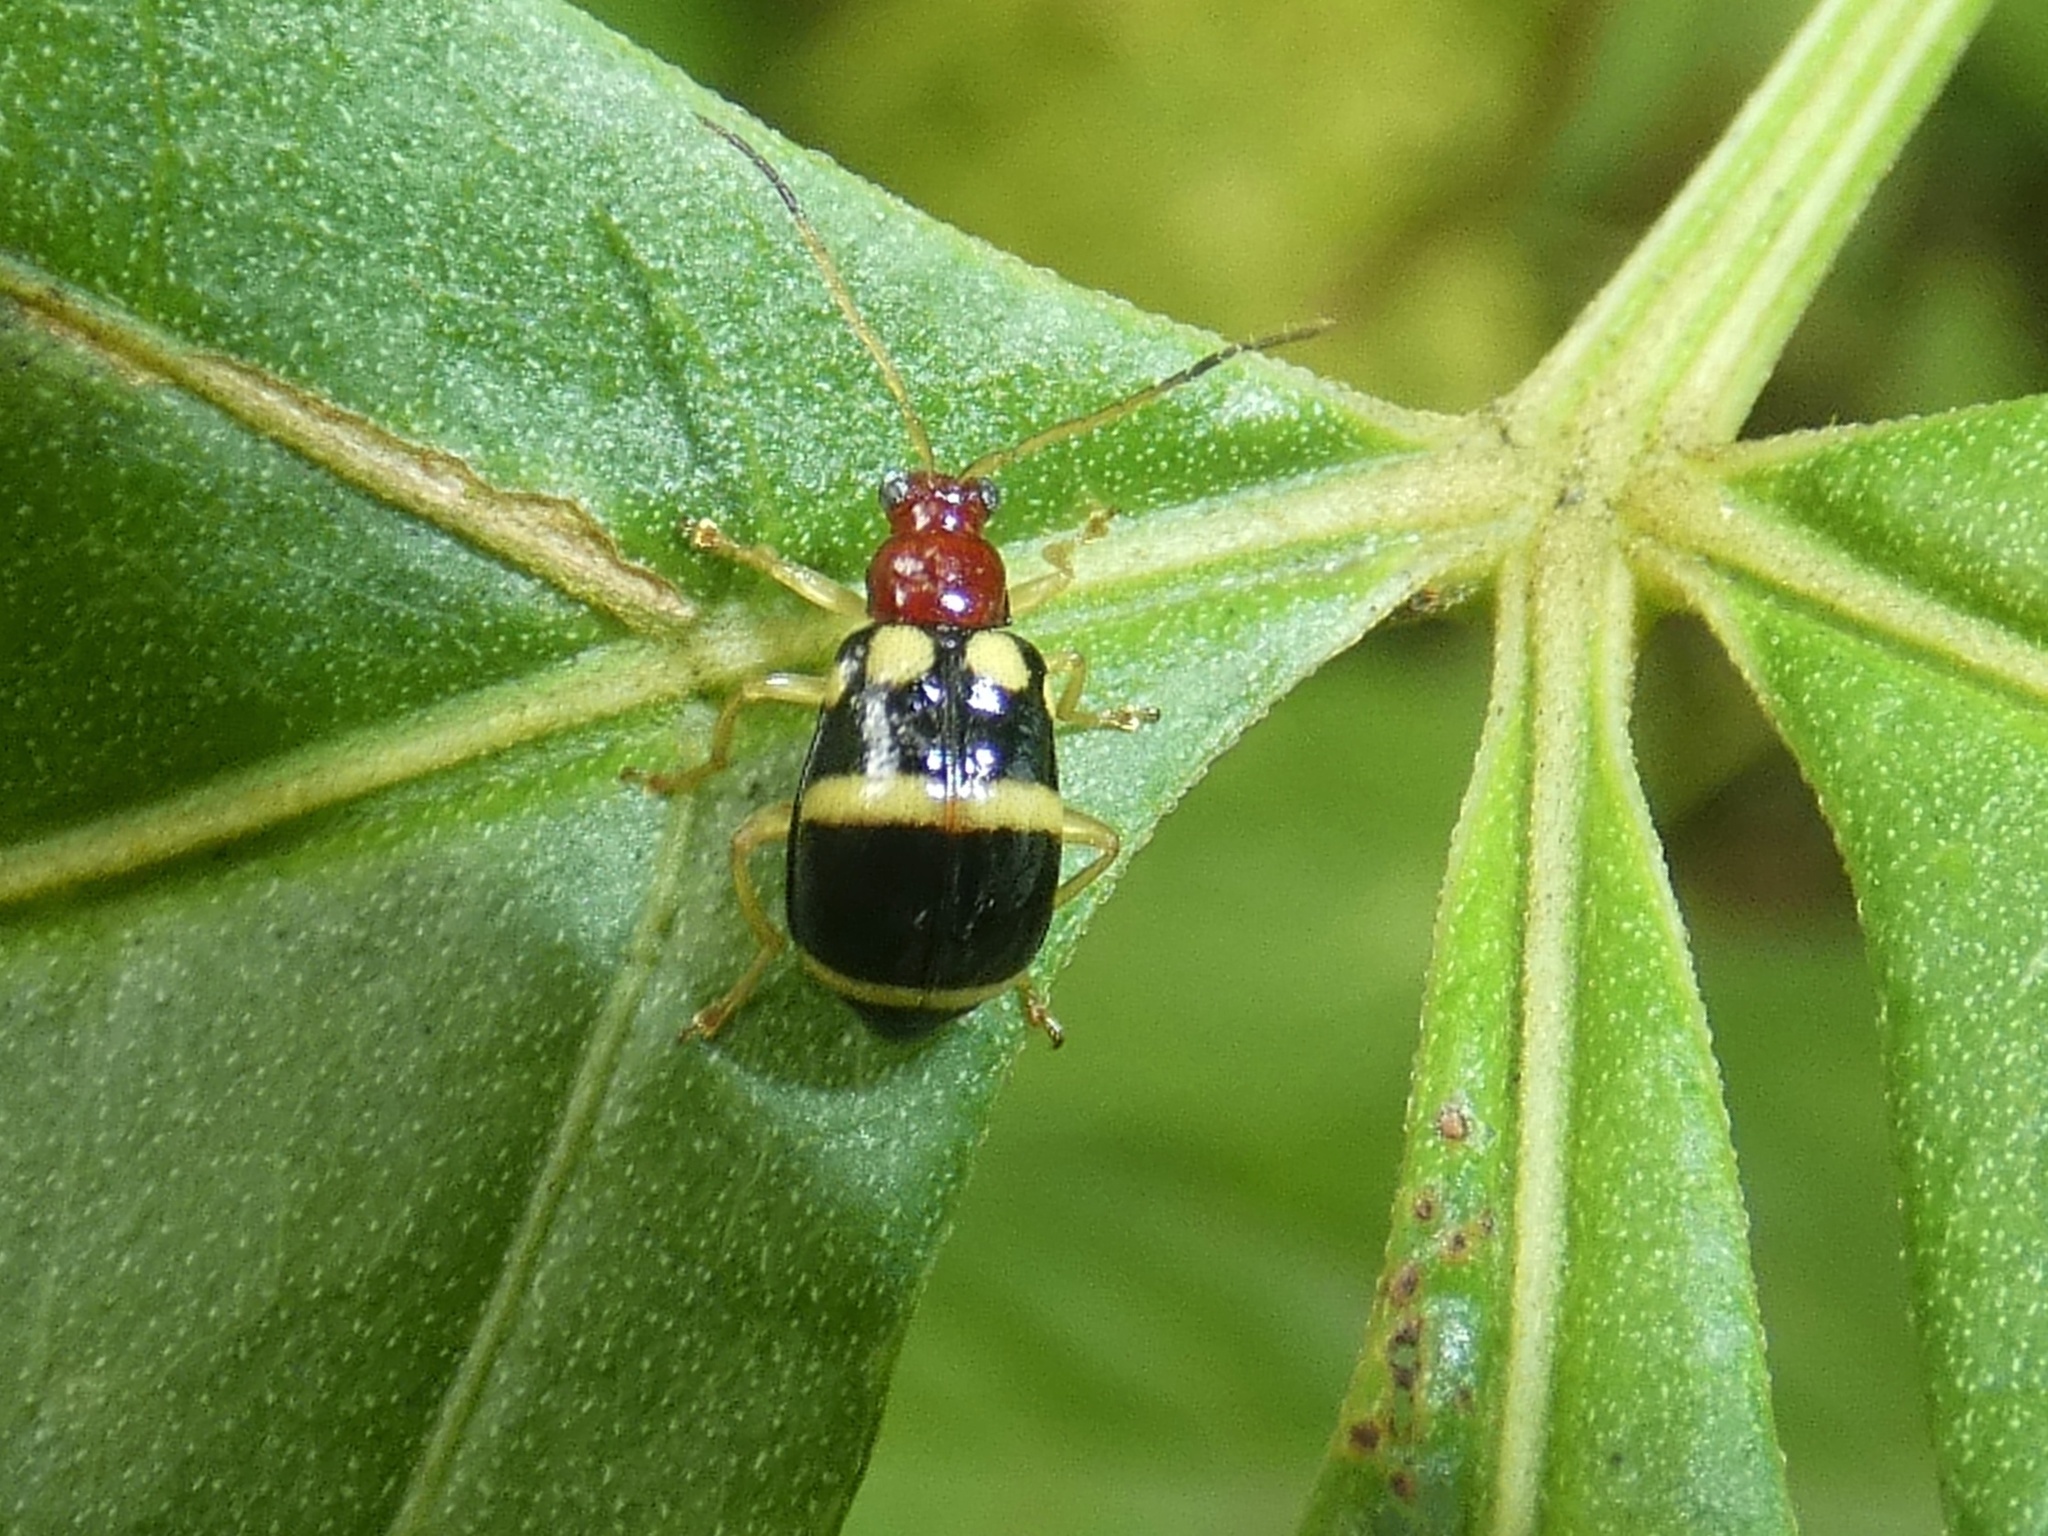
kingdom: Animalia
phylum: Arthropoda
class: Insecta
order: Coleoptera
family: Chrysomelidae
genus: Gynandrobrotica
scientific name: Gynandrobrotica
